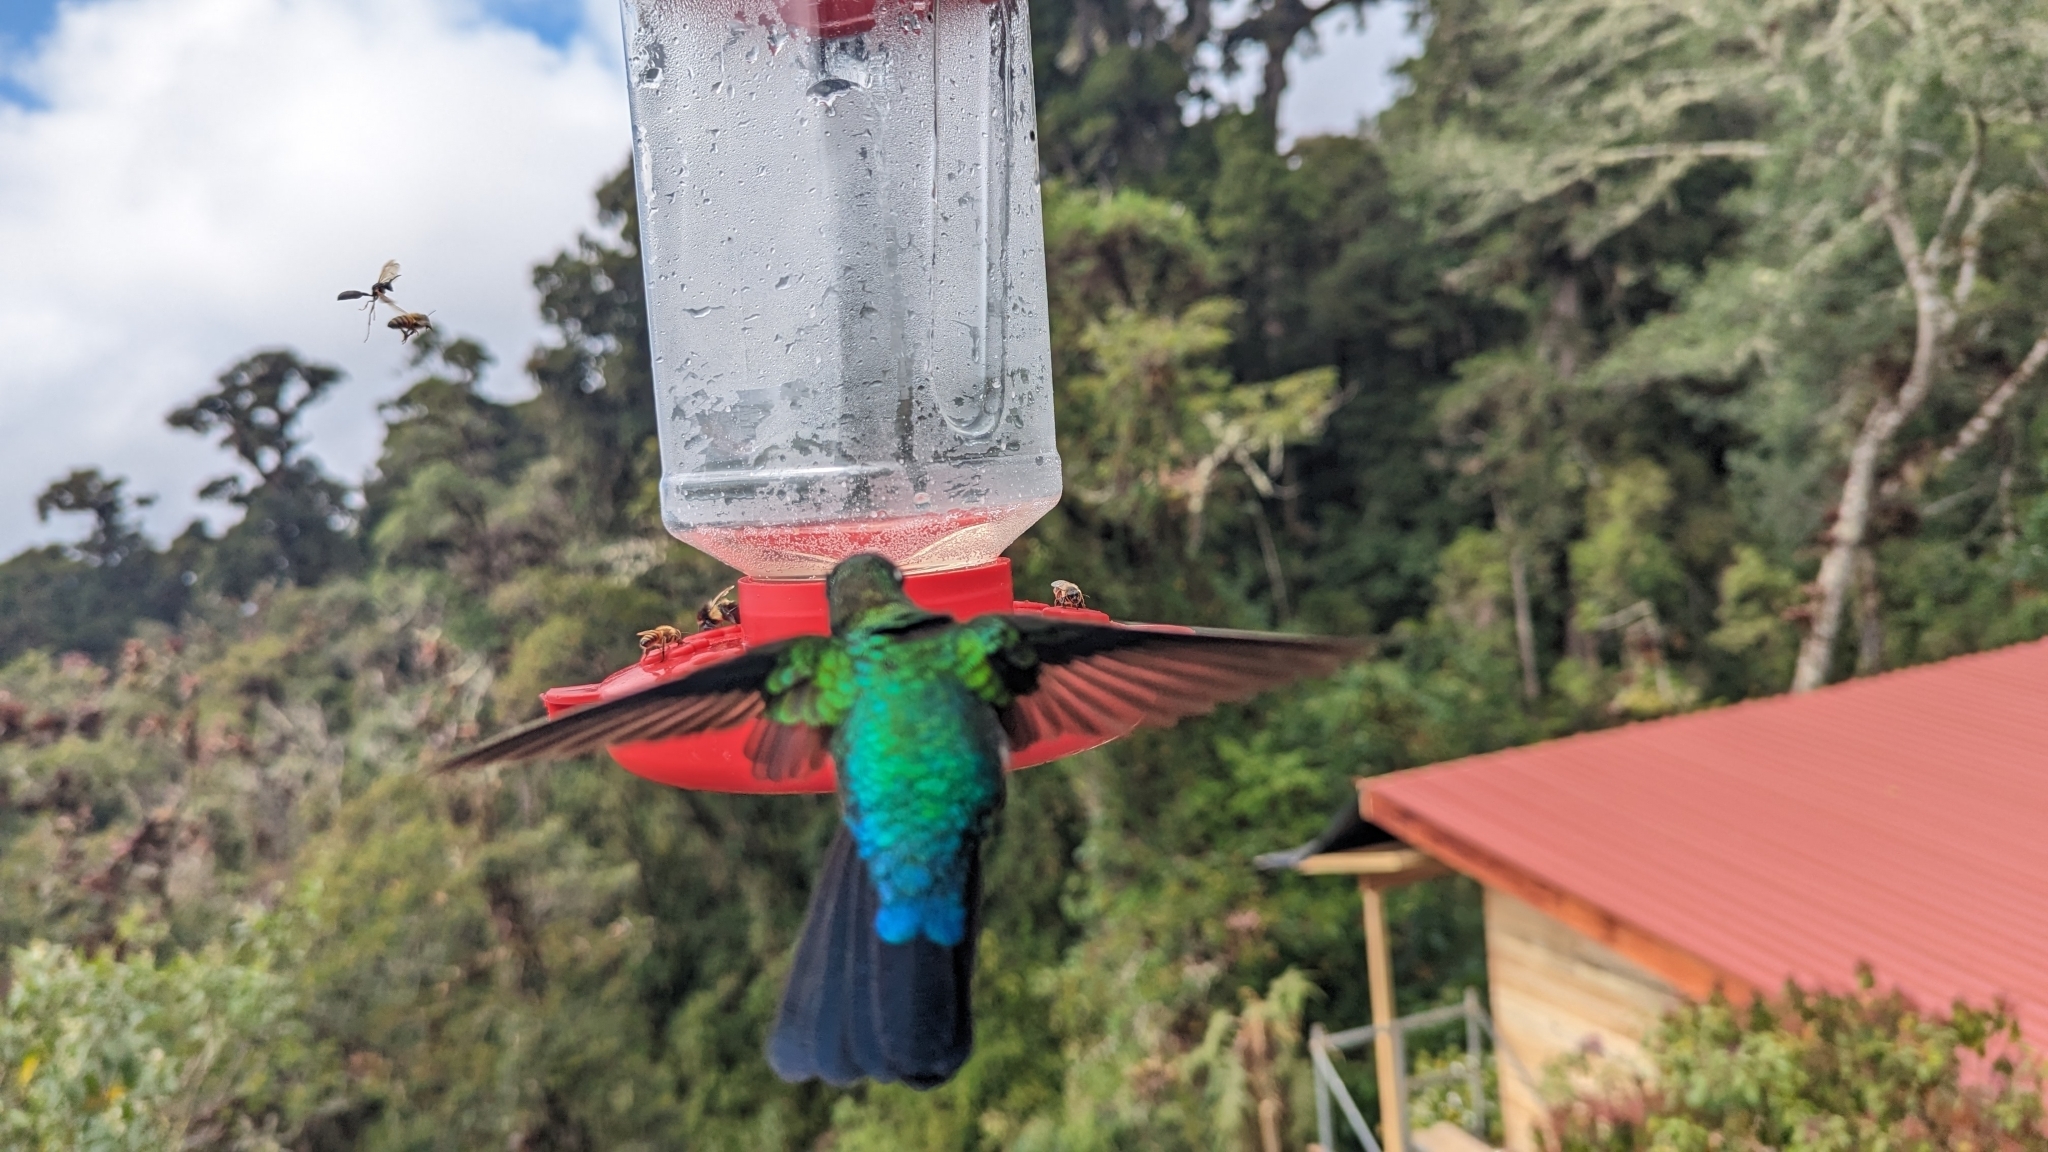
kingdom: Animalia
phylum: Chordata
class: Aves
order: Apodiformes
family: Trochilidae
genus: Colibri
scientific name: Colibri cyanotus
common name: Lesser violetear
